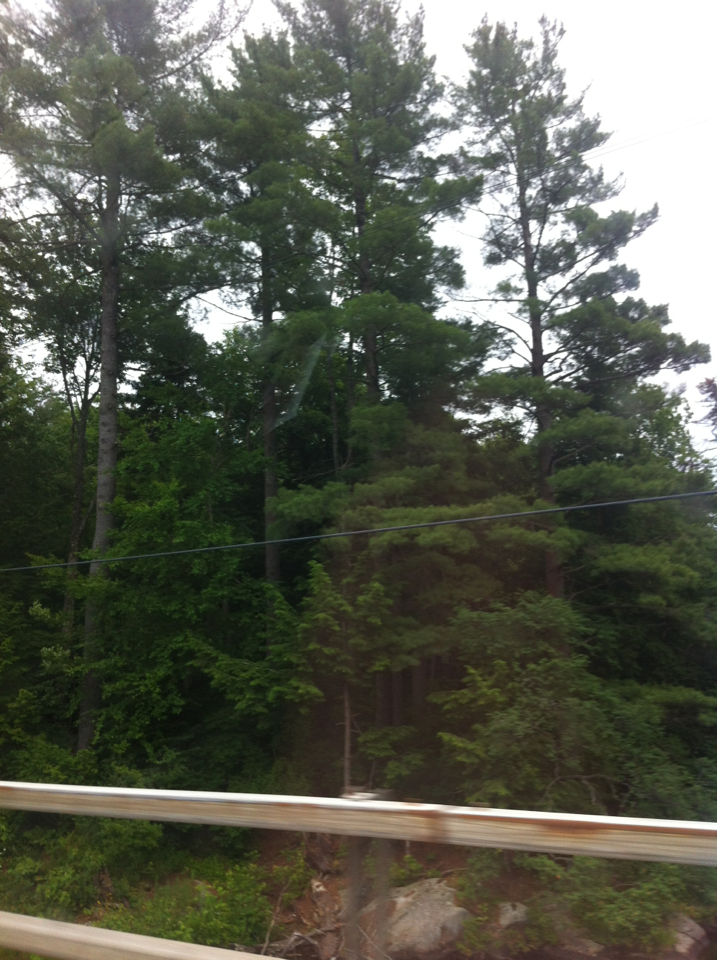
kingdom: Plantae
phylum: Tracheophyta
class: Pinopsida
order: Pinales
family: Pinaceae
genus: Pinus
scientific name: Pinus strobus
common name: Weymouth pine
